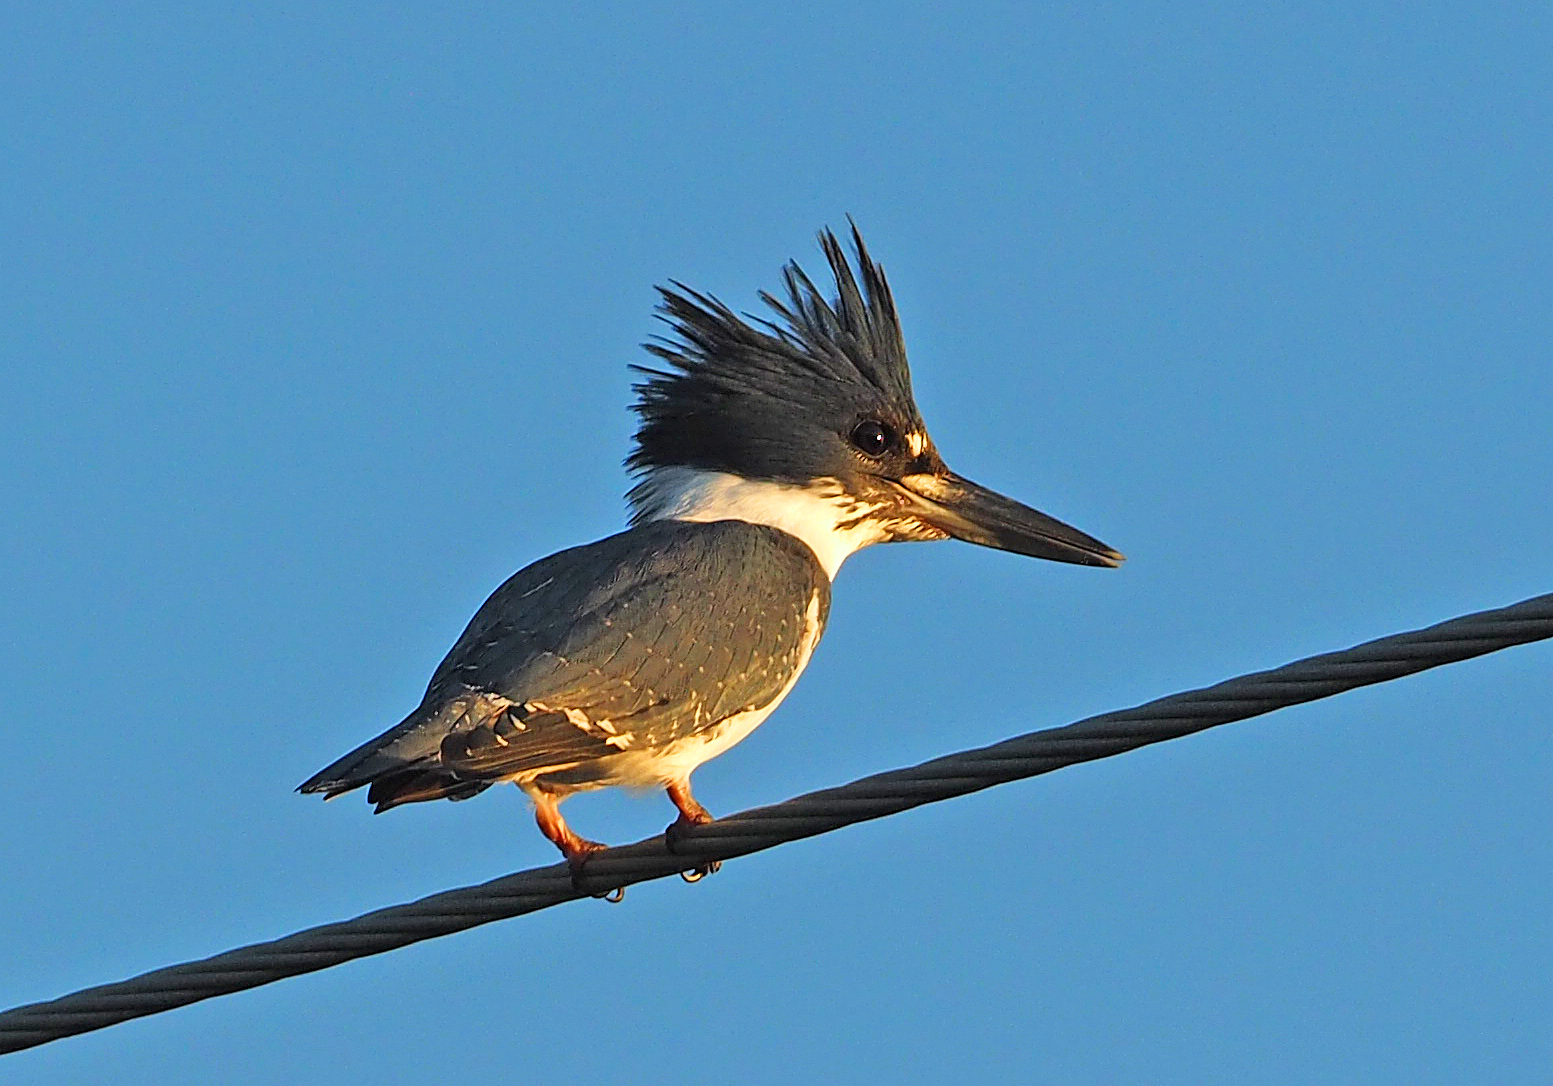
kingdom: Animalia
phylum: Chordata
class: Aves
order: Coraciiformes
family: Alcedinidae
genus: Megaceryle
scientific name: Megaceryle alcyon
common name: Belted kingfisher
